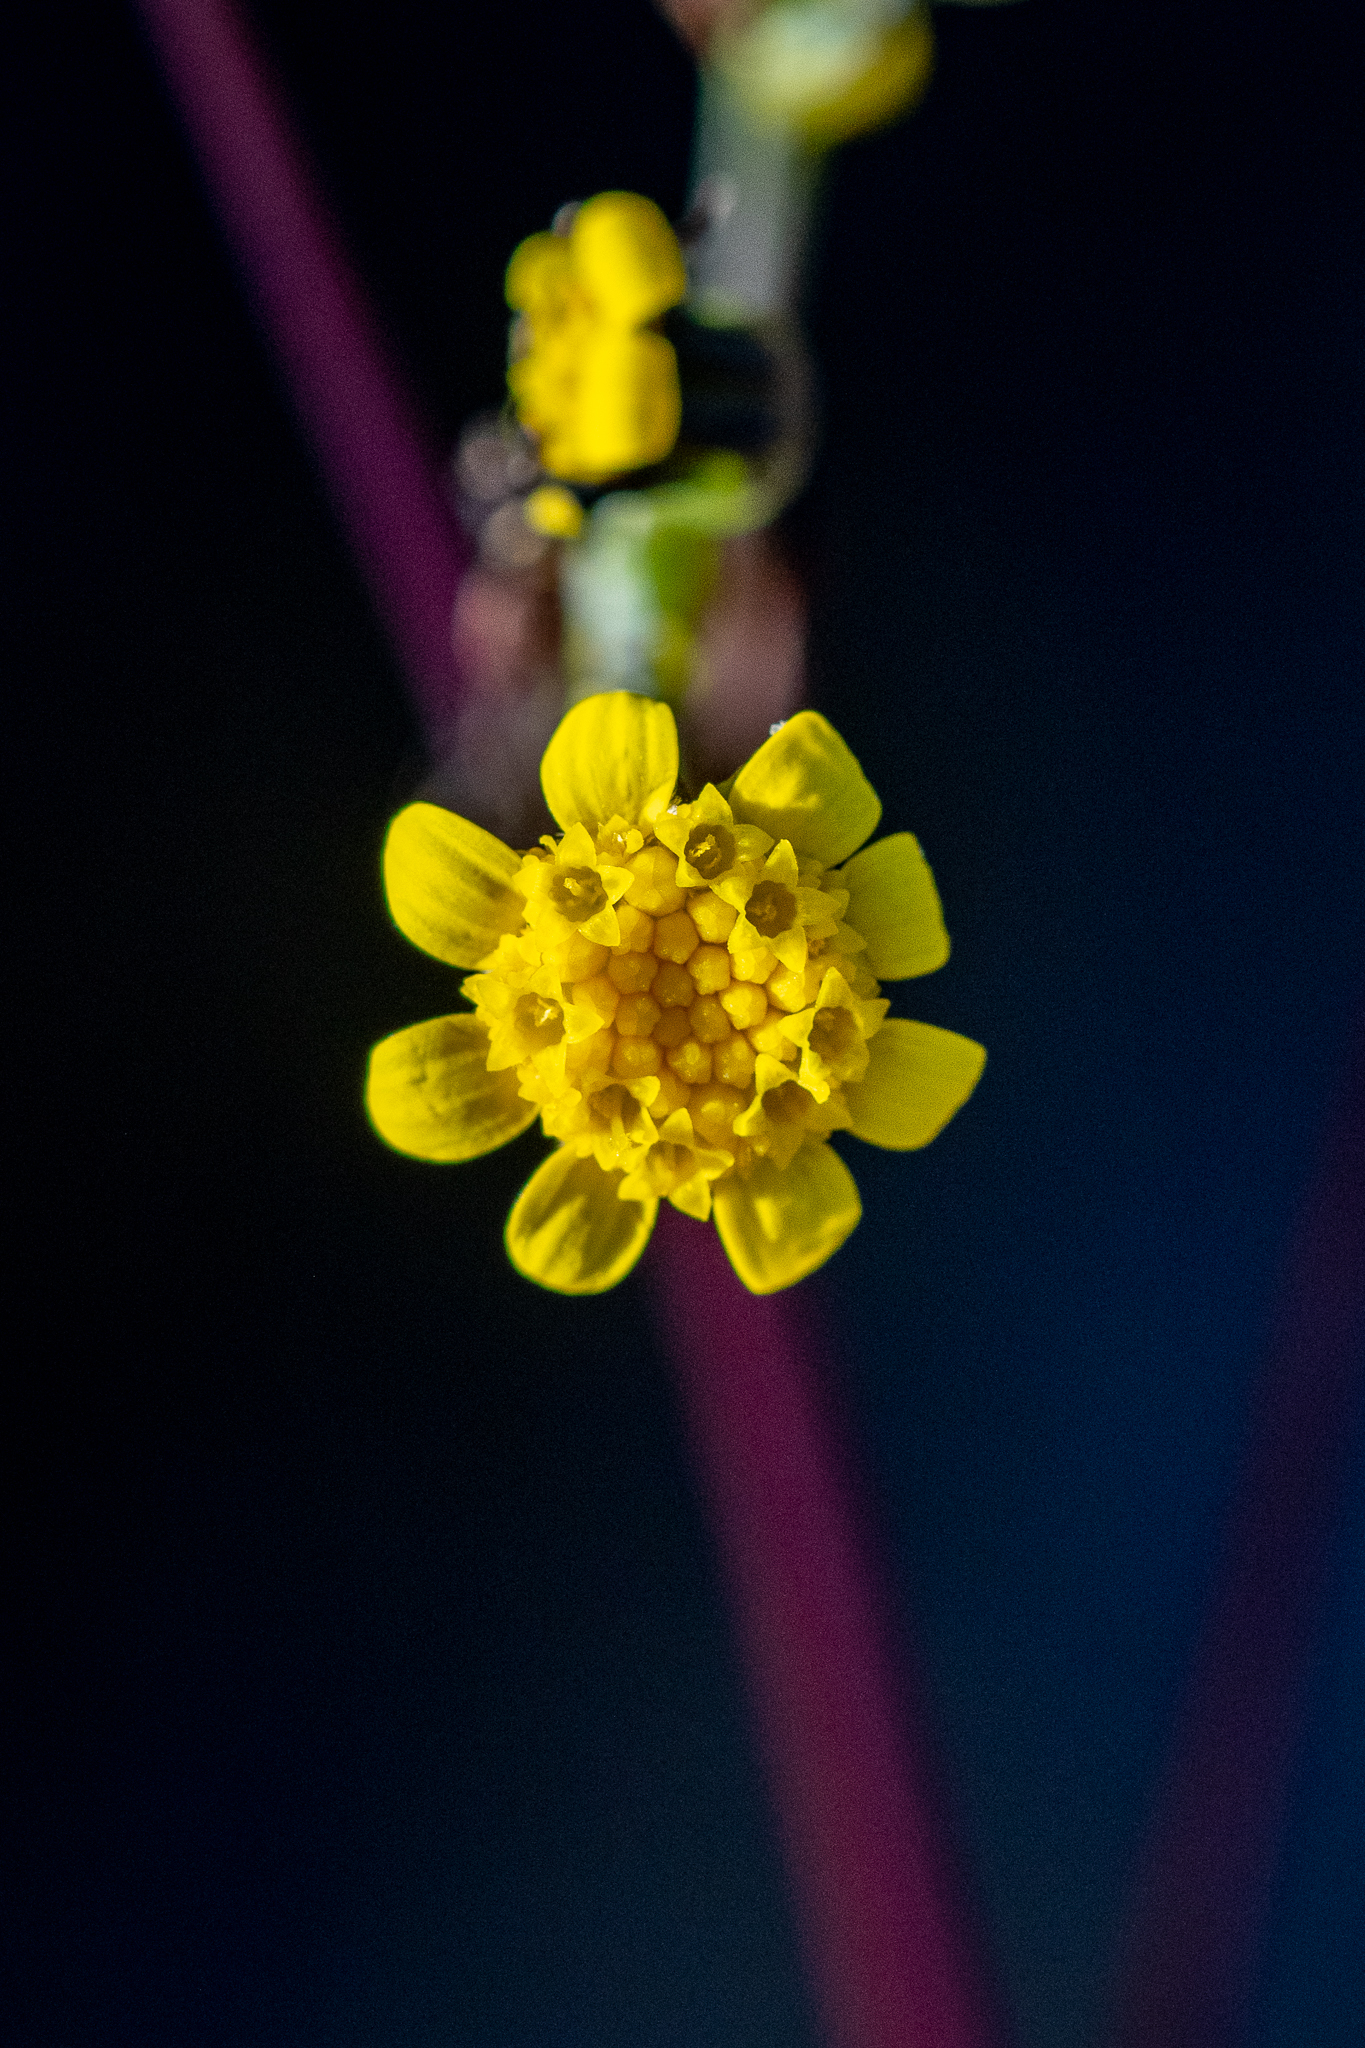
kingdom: Plantae
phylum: Tracheophyta
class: Magnoliopsida
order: Asterales
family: Asteraceae
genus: Othonna
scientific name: Othonna quinquedentata
